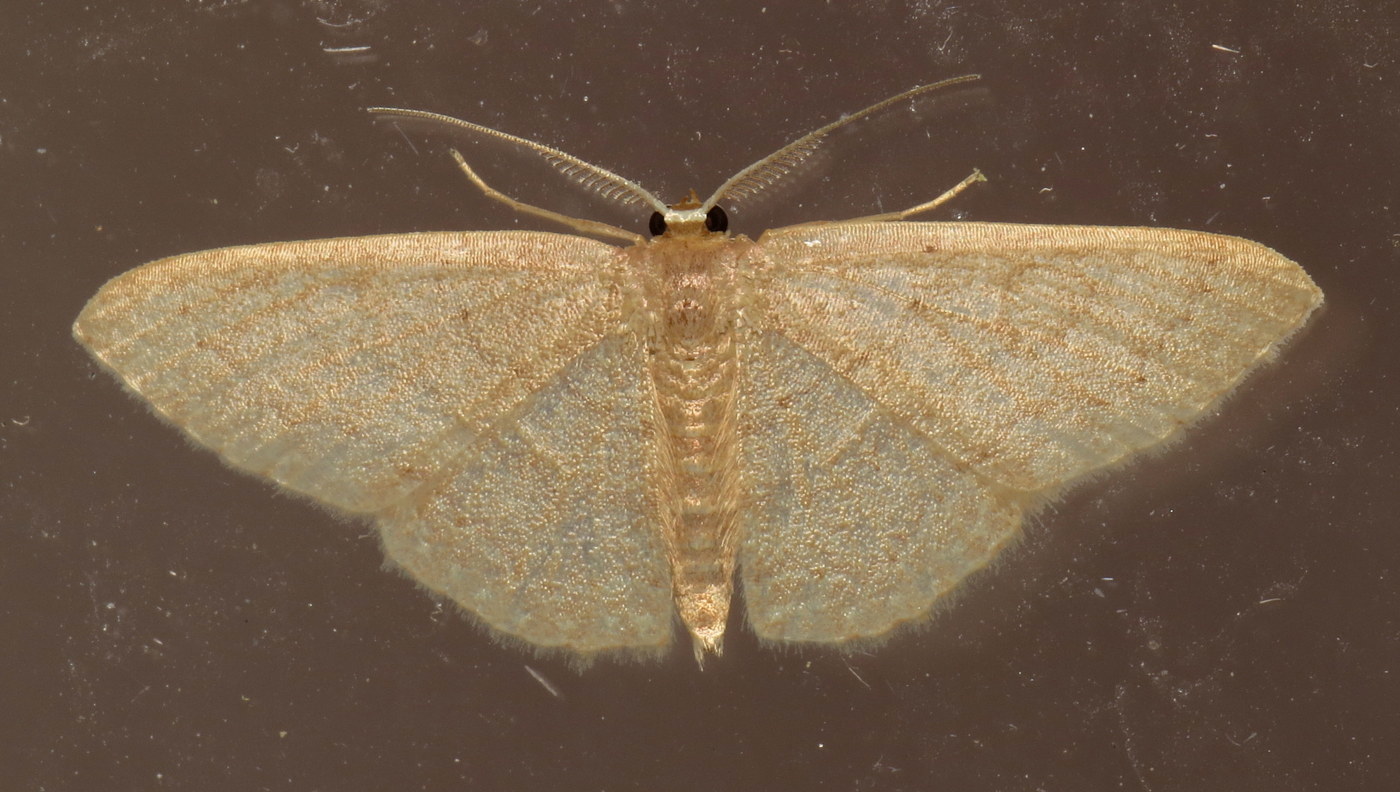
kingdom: Animalia
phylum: Arthropoda
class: Insecta
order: Lepidoptera
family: Geometridae
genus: Pleuroprucha
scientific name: Pleuroprucha insulsaria
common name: Common tan wave
